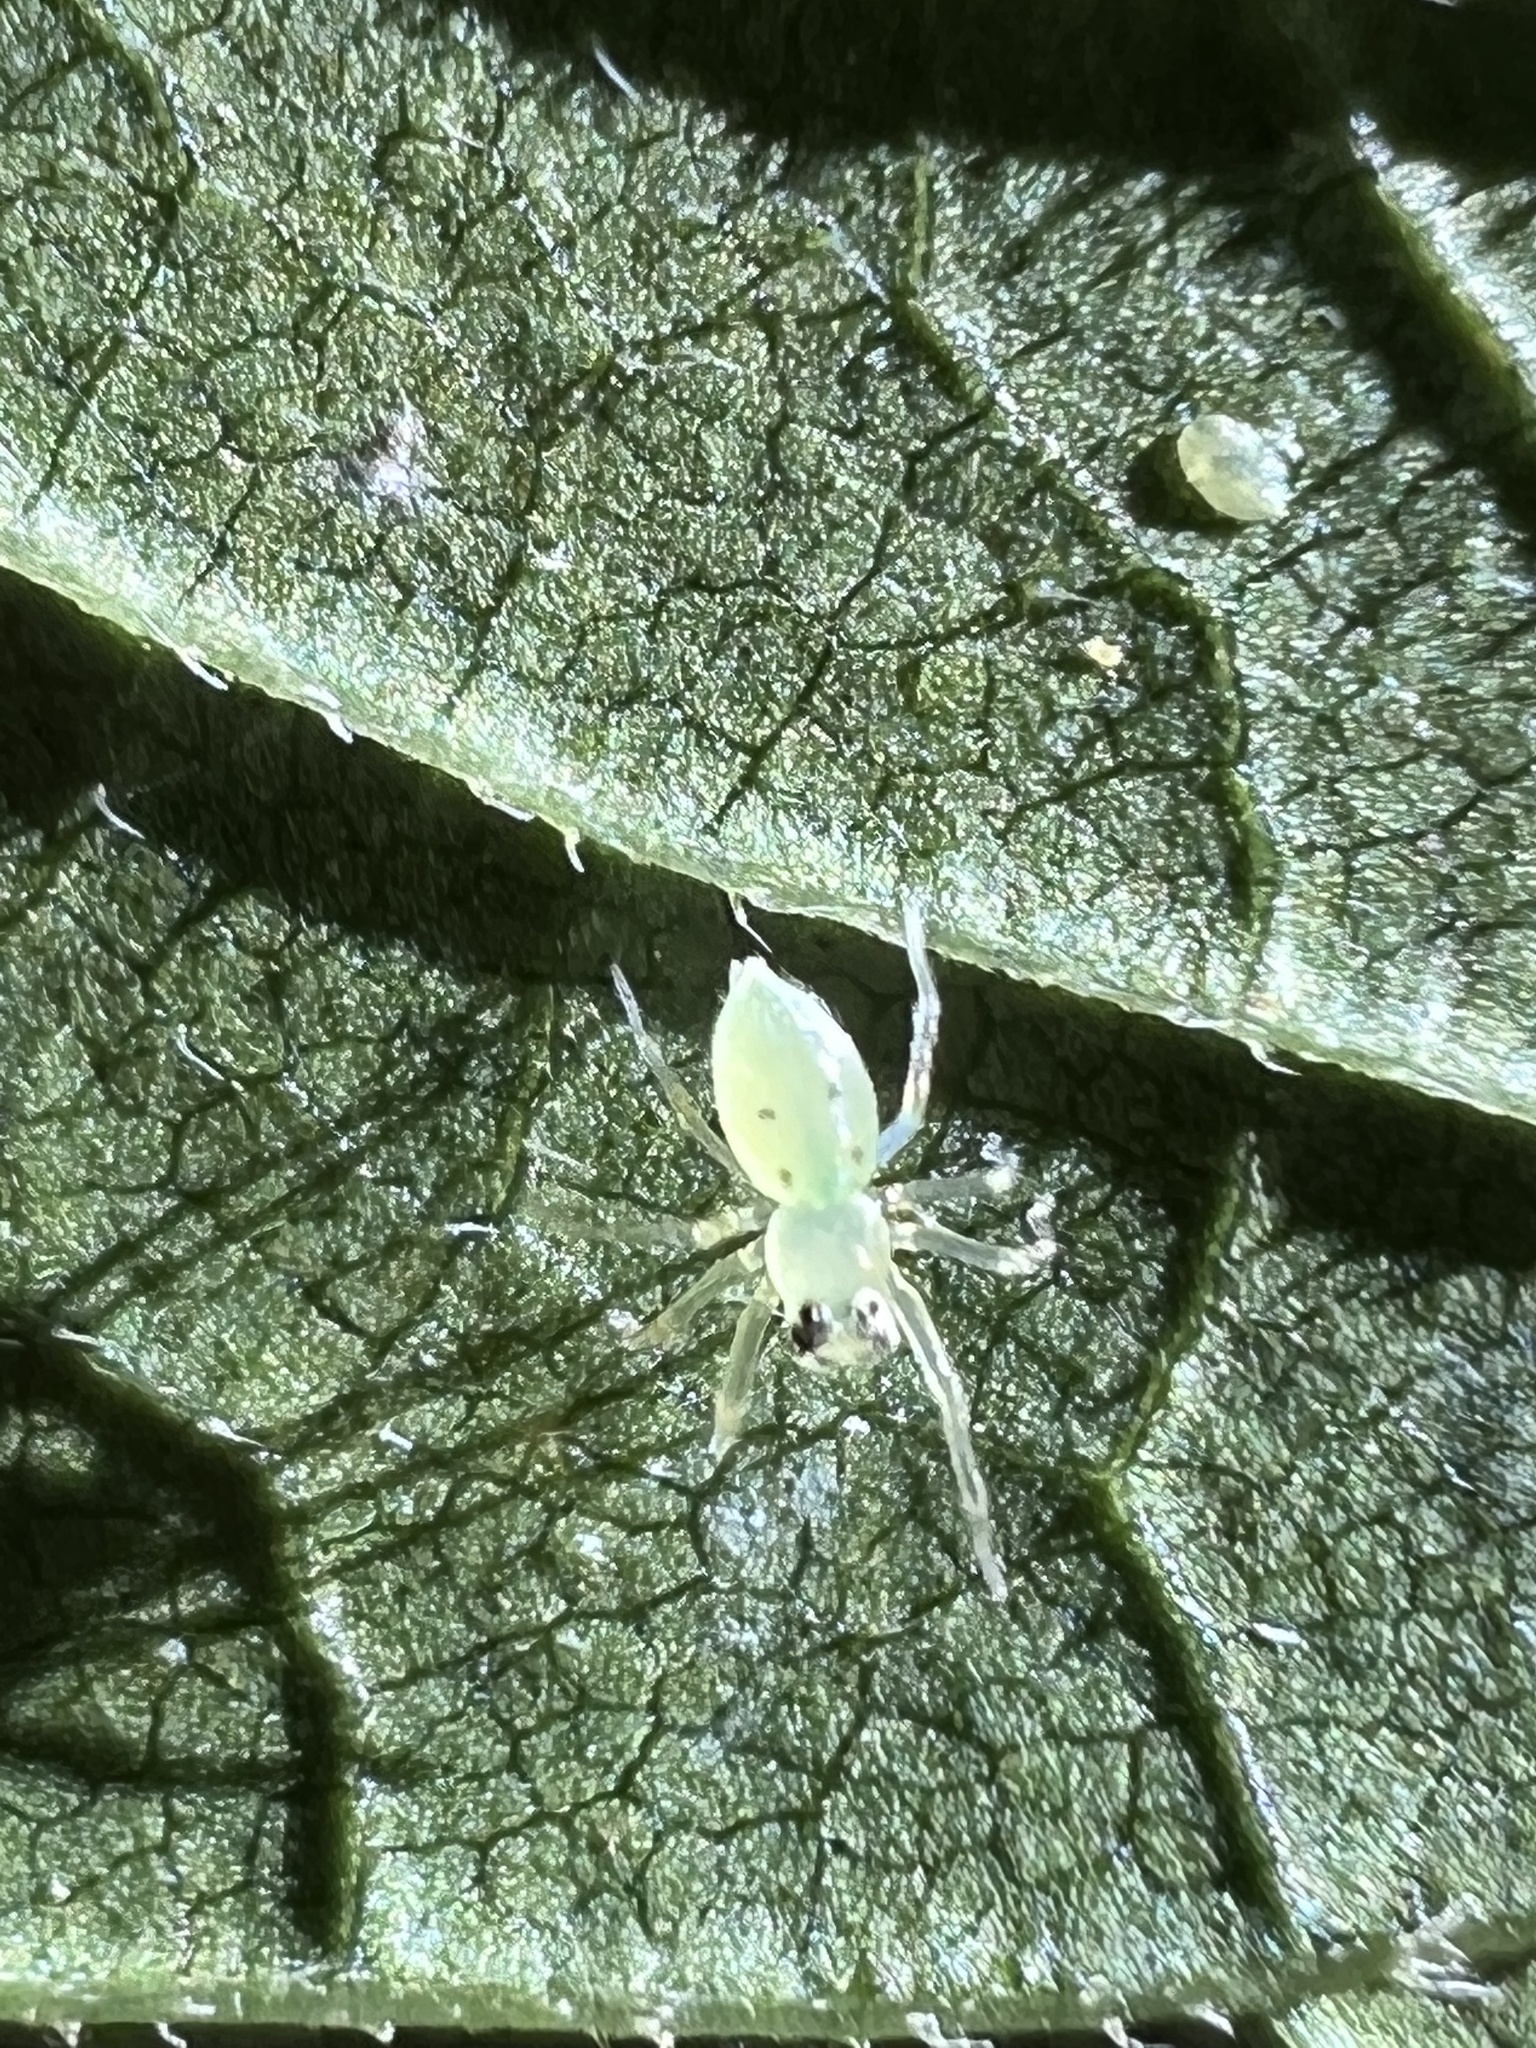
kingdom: Animalia
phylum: Arthropoda
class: Arachnida
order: Araneae
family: Salticidae
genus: Lyssomanes
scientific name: Lyssomanes viridis
